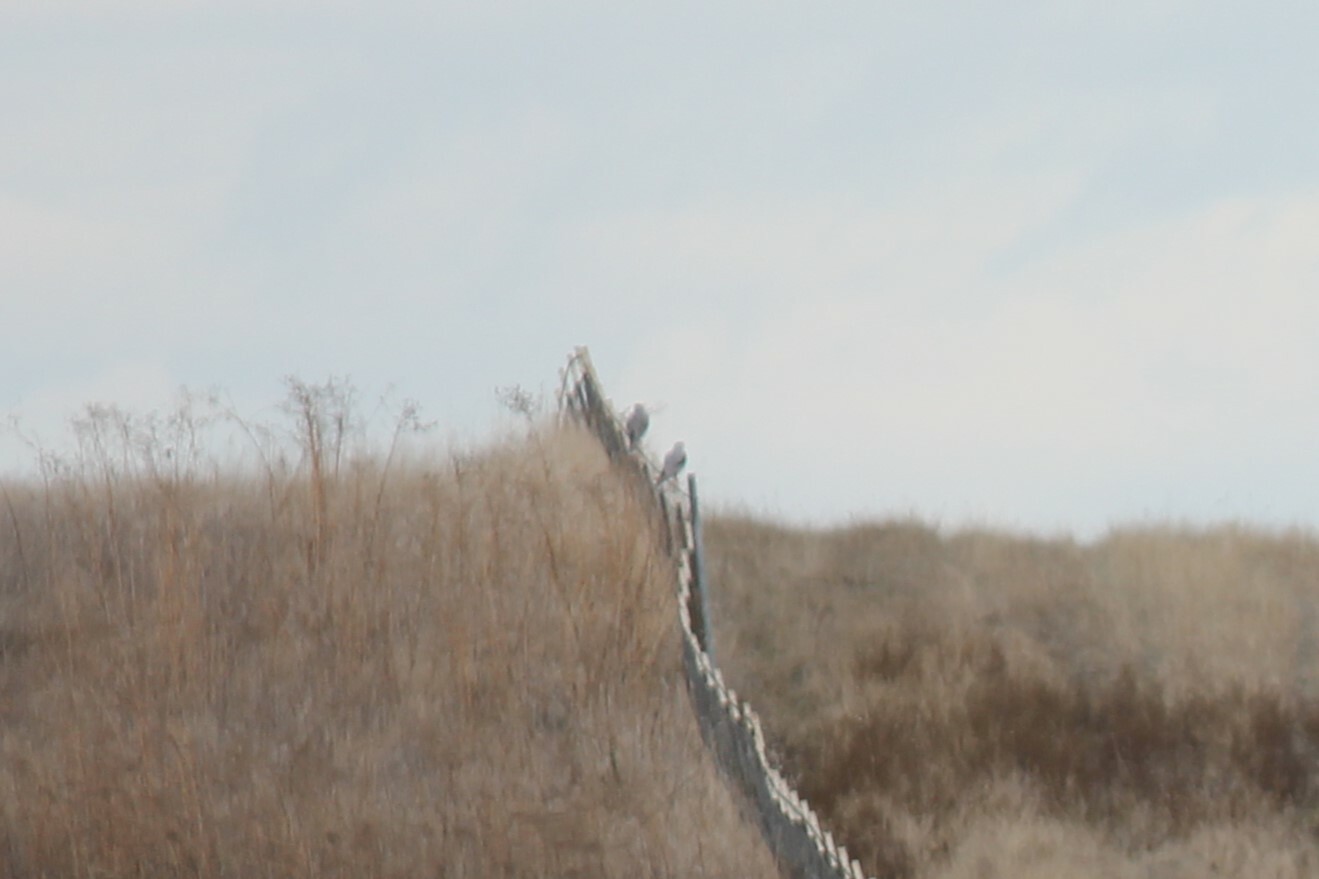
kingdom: Animalia
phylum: Chordata
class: Aves
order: Accipitriformes
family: Accipitridae
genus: Elanus
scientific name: Elanus leucurus
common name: White-tailed kite
